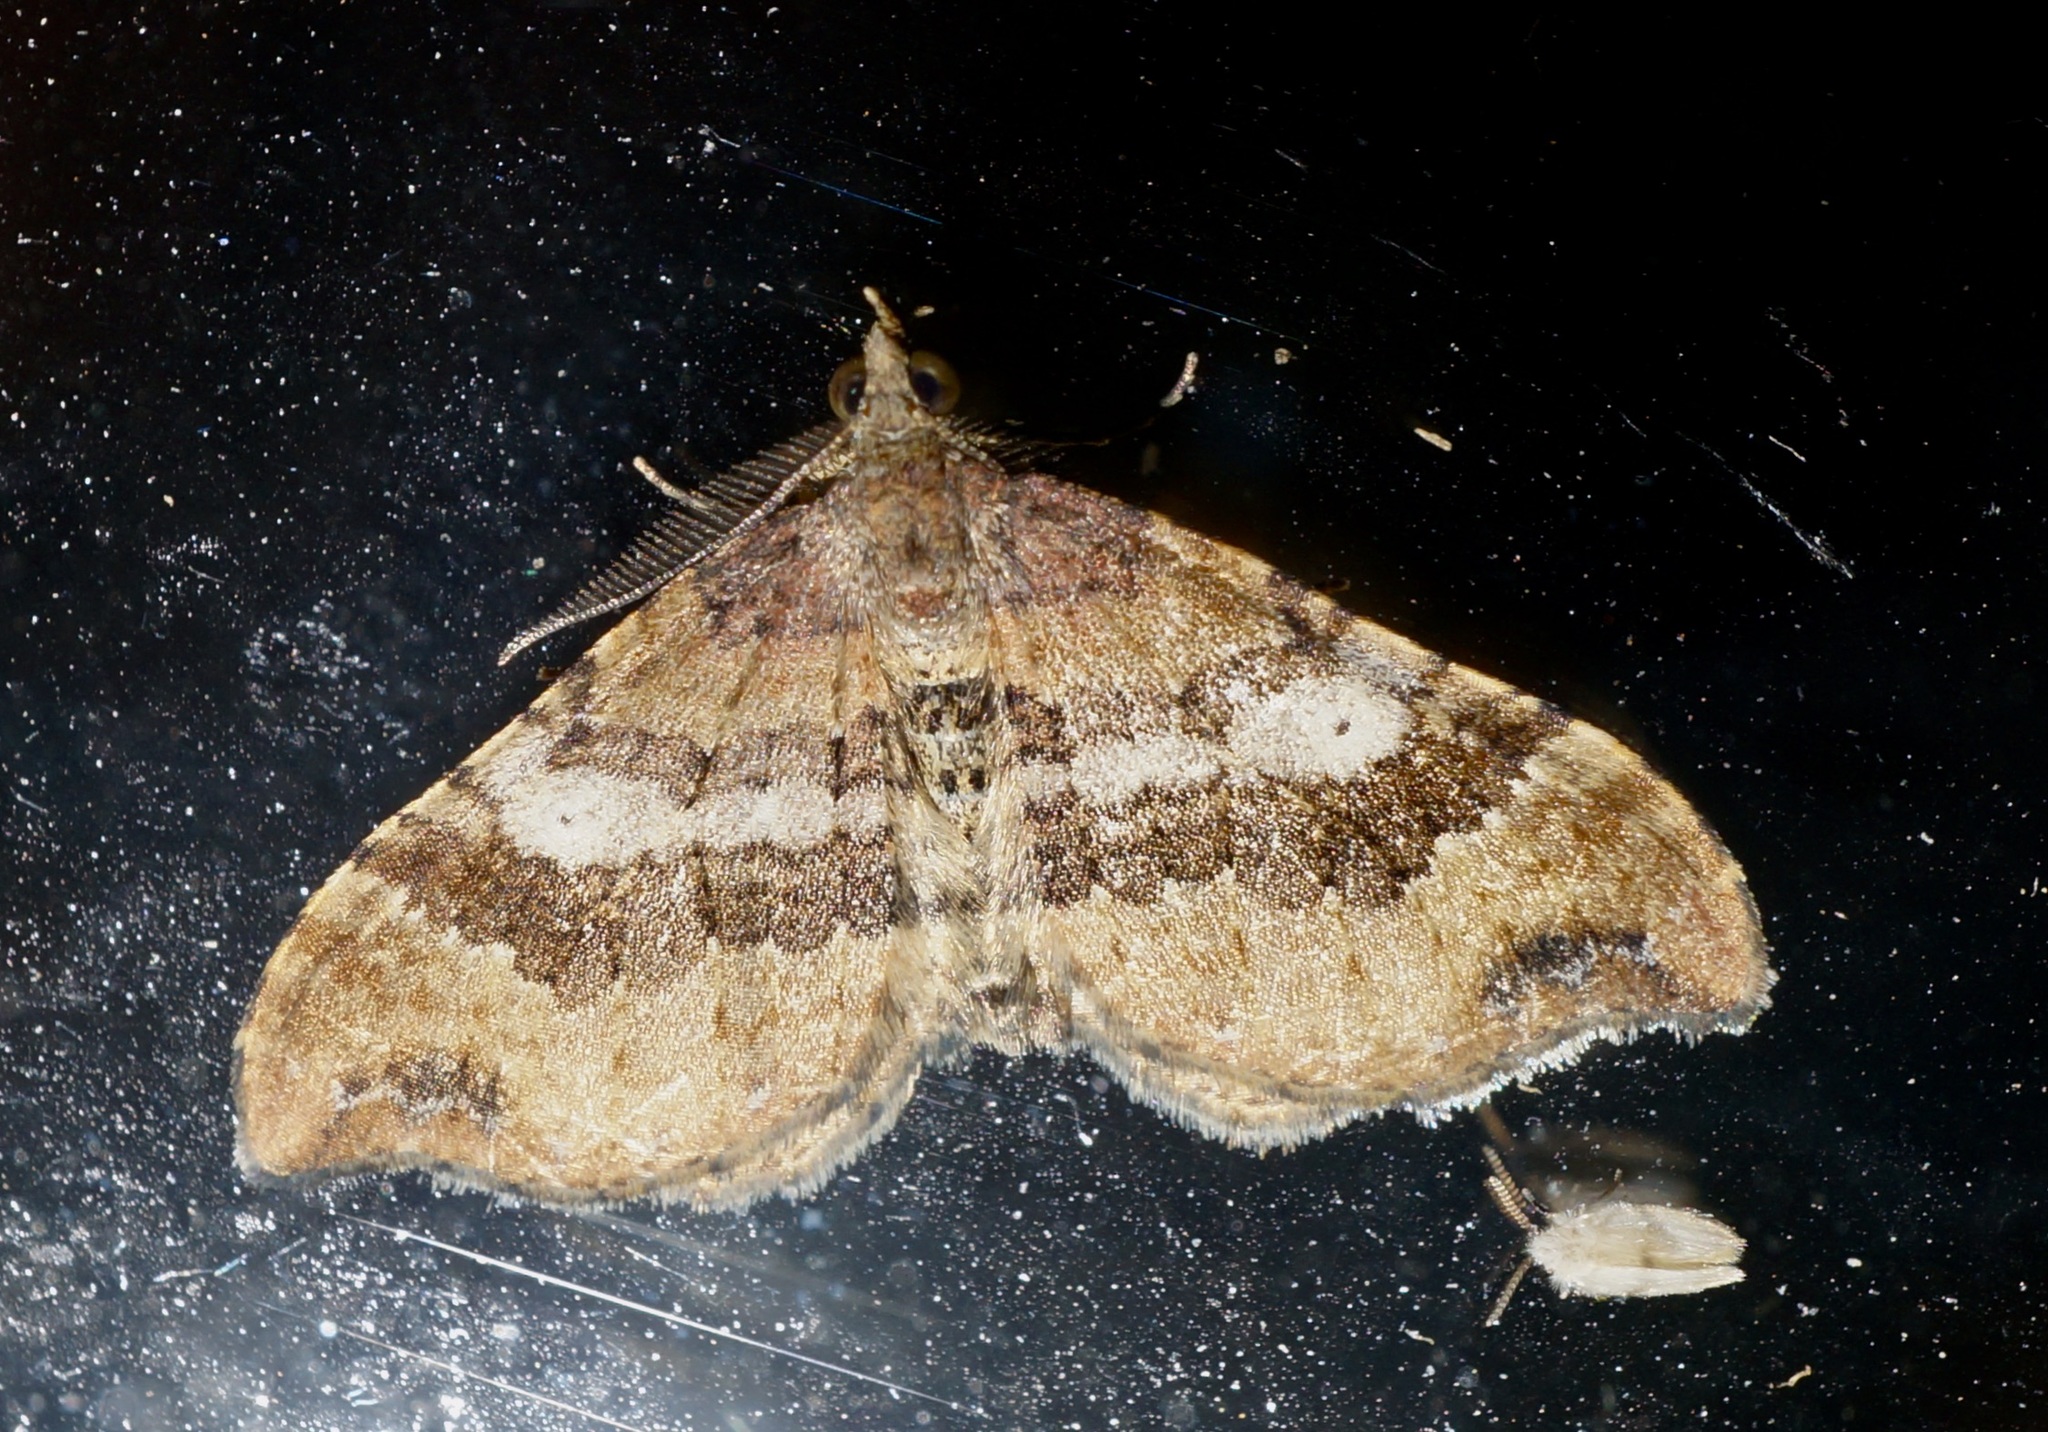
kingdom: Animalia
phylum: Arthropoda
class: Insecta
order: Lepidoptera
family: Geometridae
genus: Homodotis
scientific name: Homodotis megaspilata
